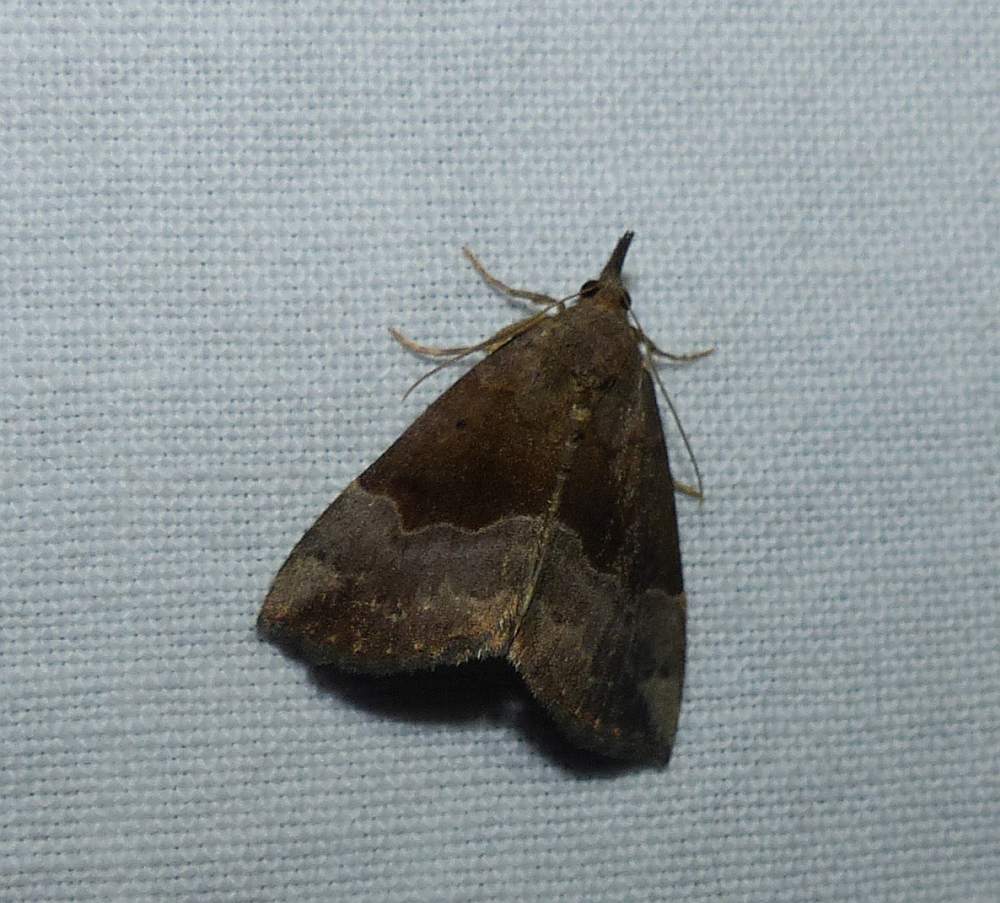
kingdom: Animalia
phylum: Arthropoda
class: Insecta
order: Lepidoptera
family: Erebidae
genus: Hypena
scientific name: Hypena madefactalis
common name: Gray-edged snout
